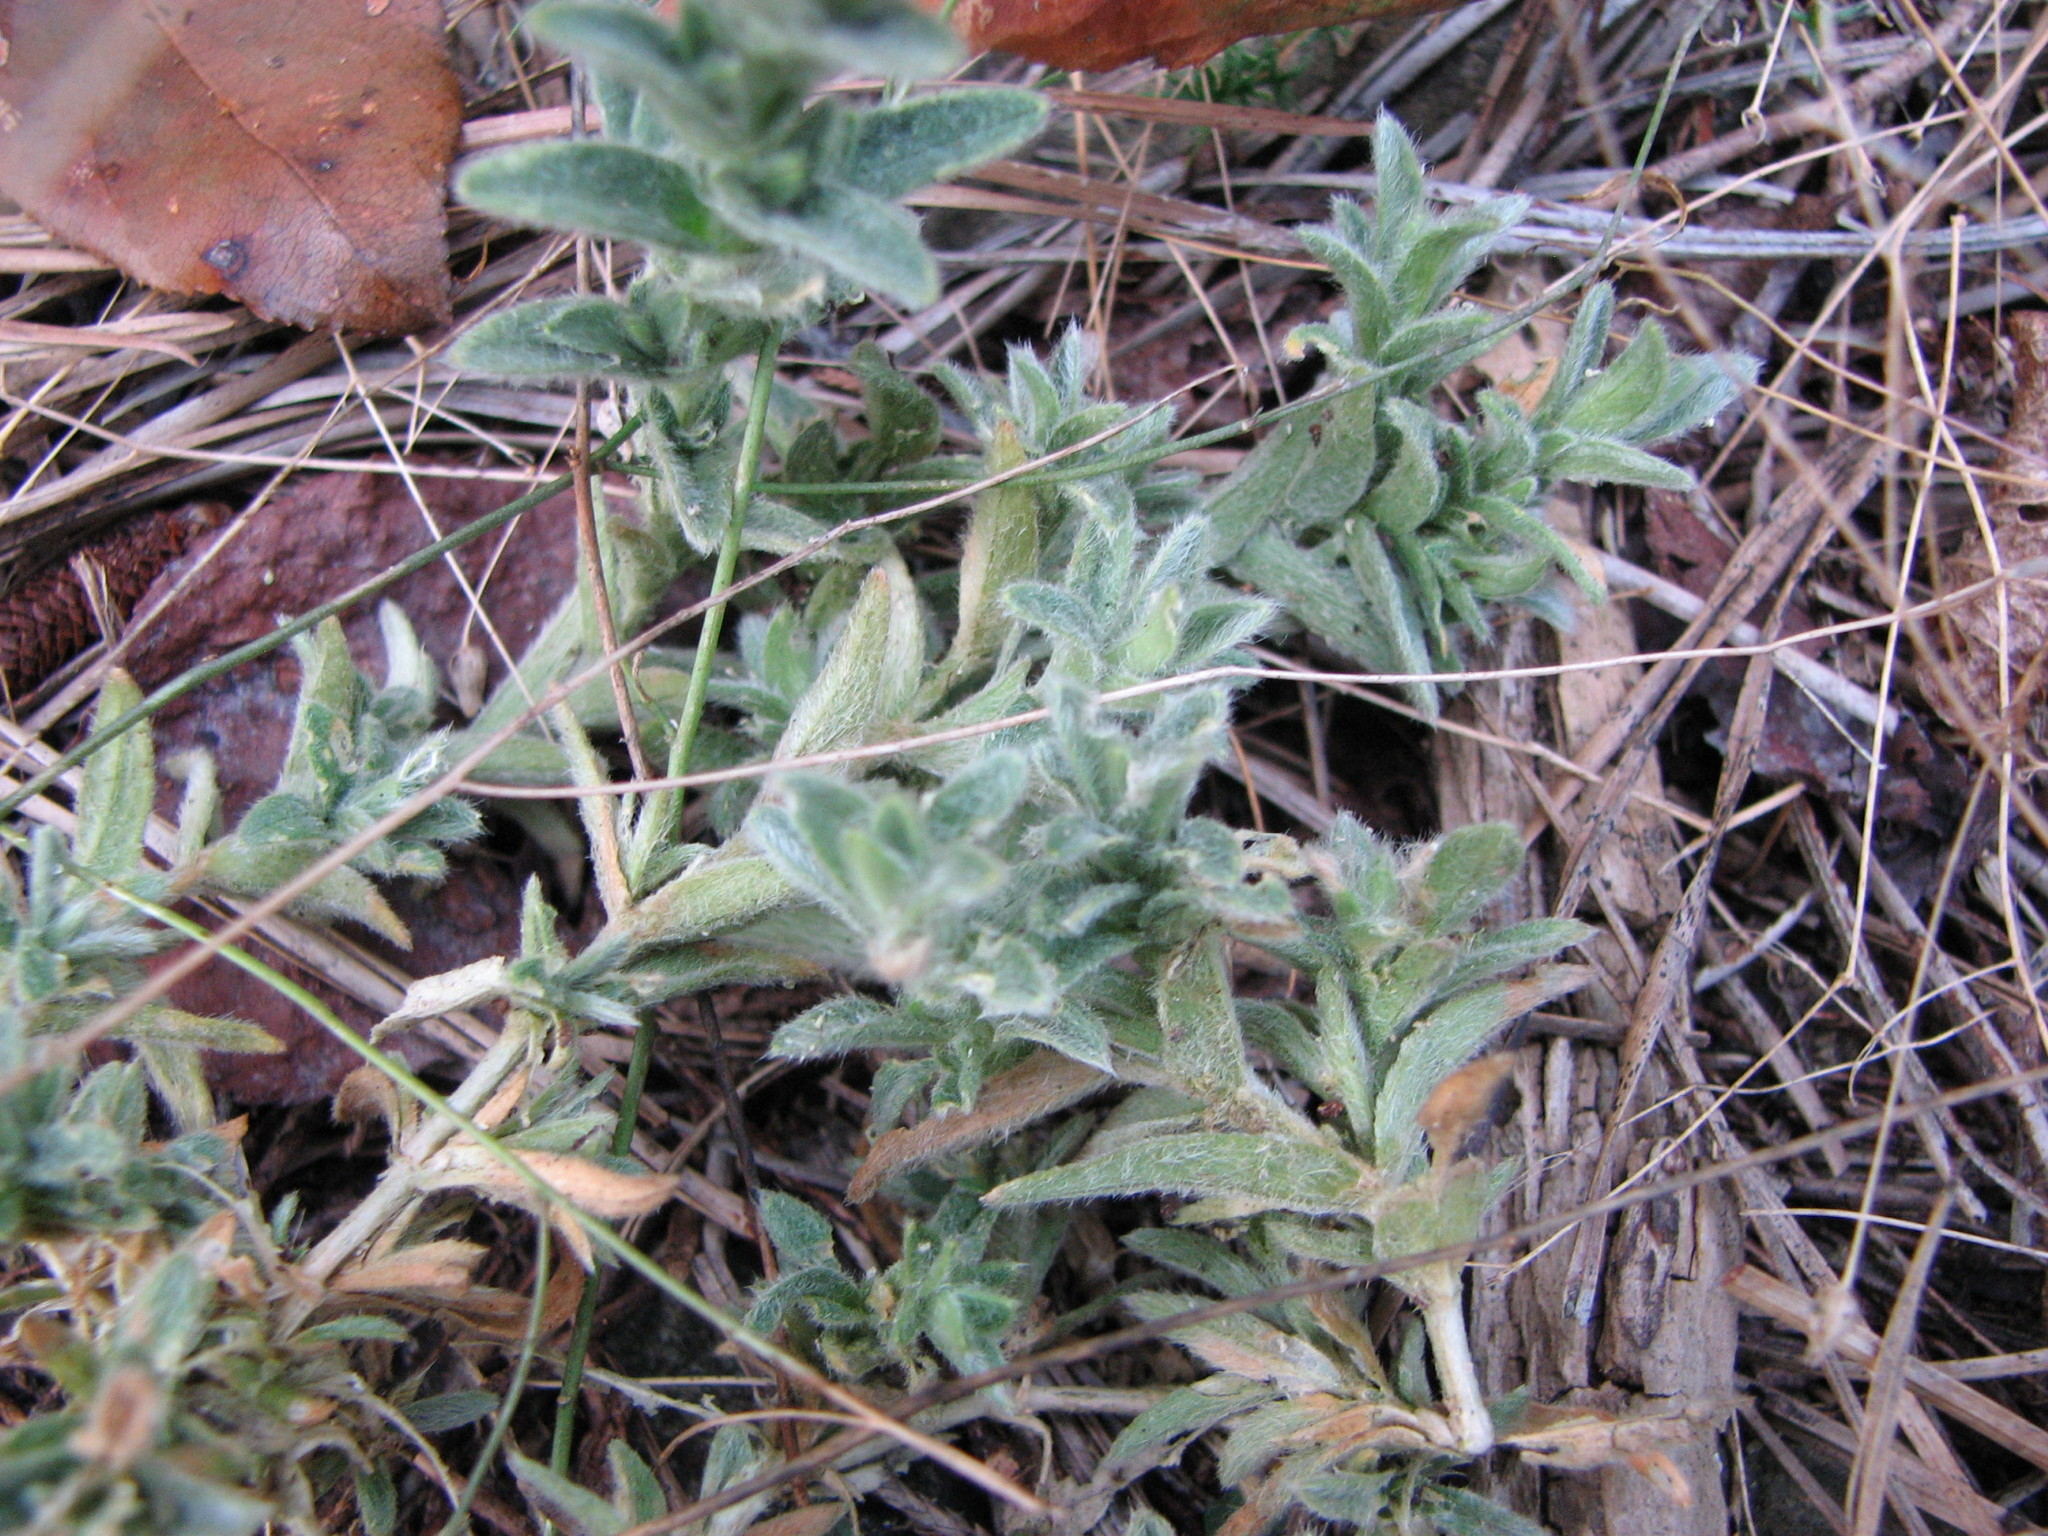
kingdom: Plantae
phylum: Tracheophyta
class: Magnoliopsida
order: Caryophyllales
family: Caryophyllaceae
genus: Cerastium
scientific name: Cerastium velutinum
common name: Barren chickweed
